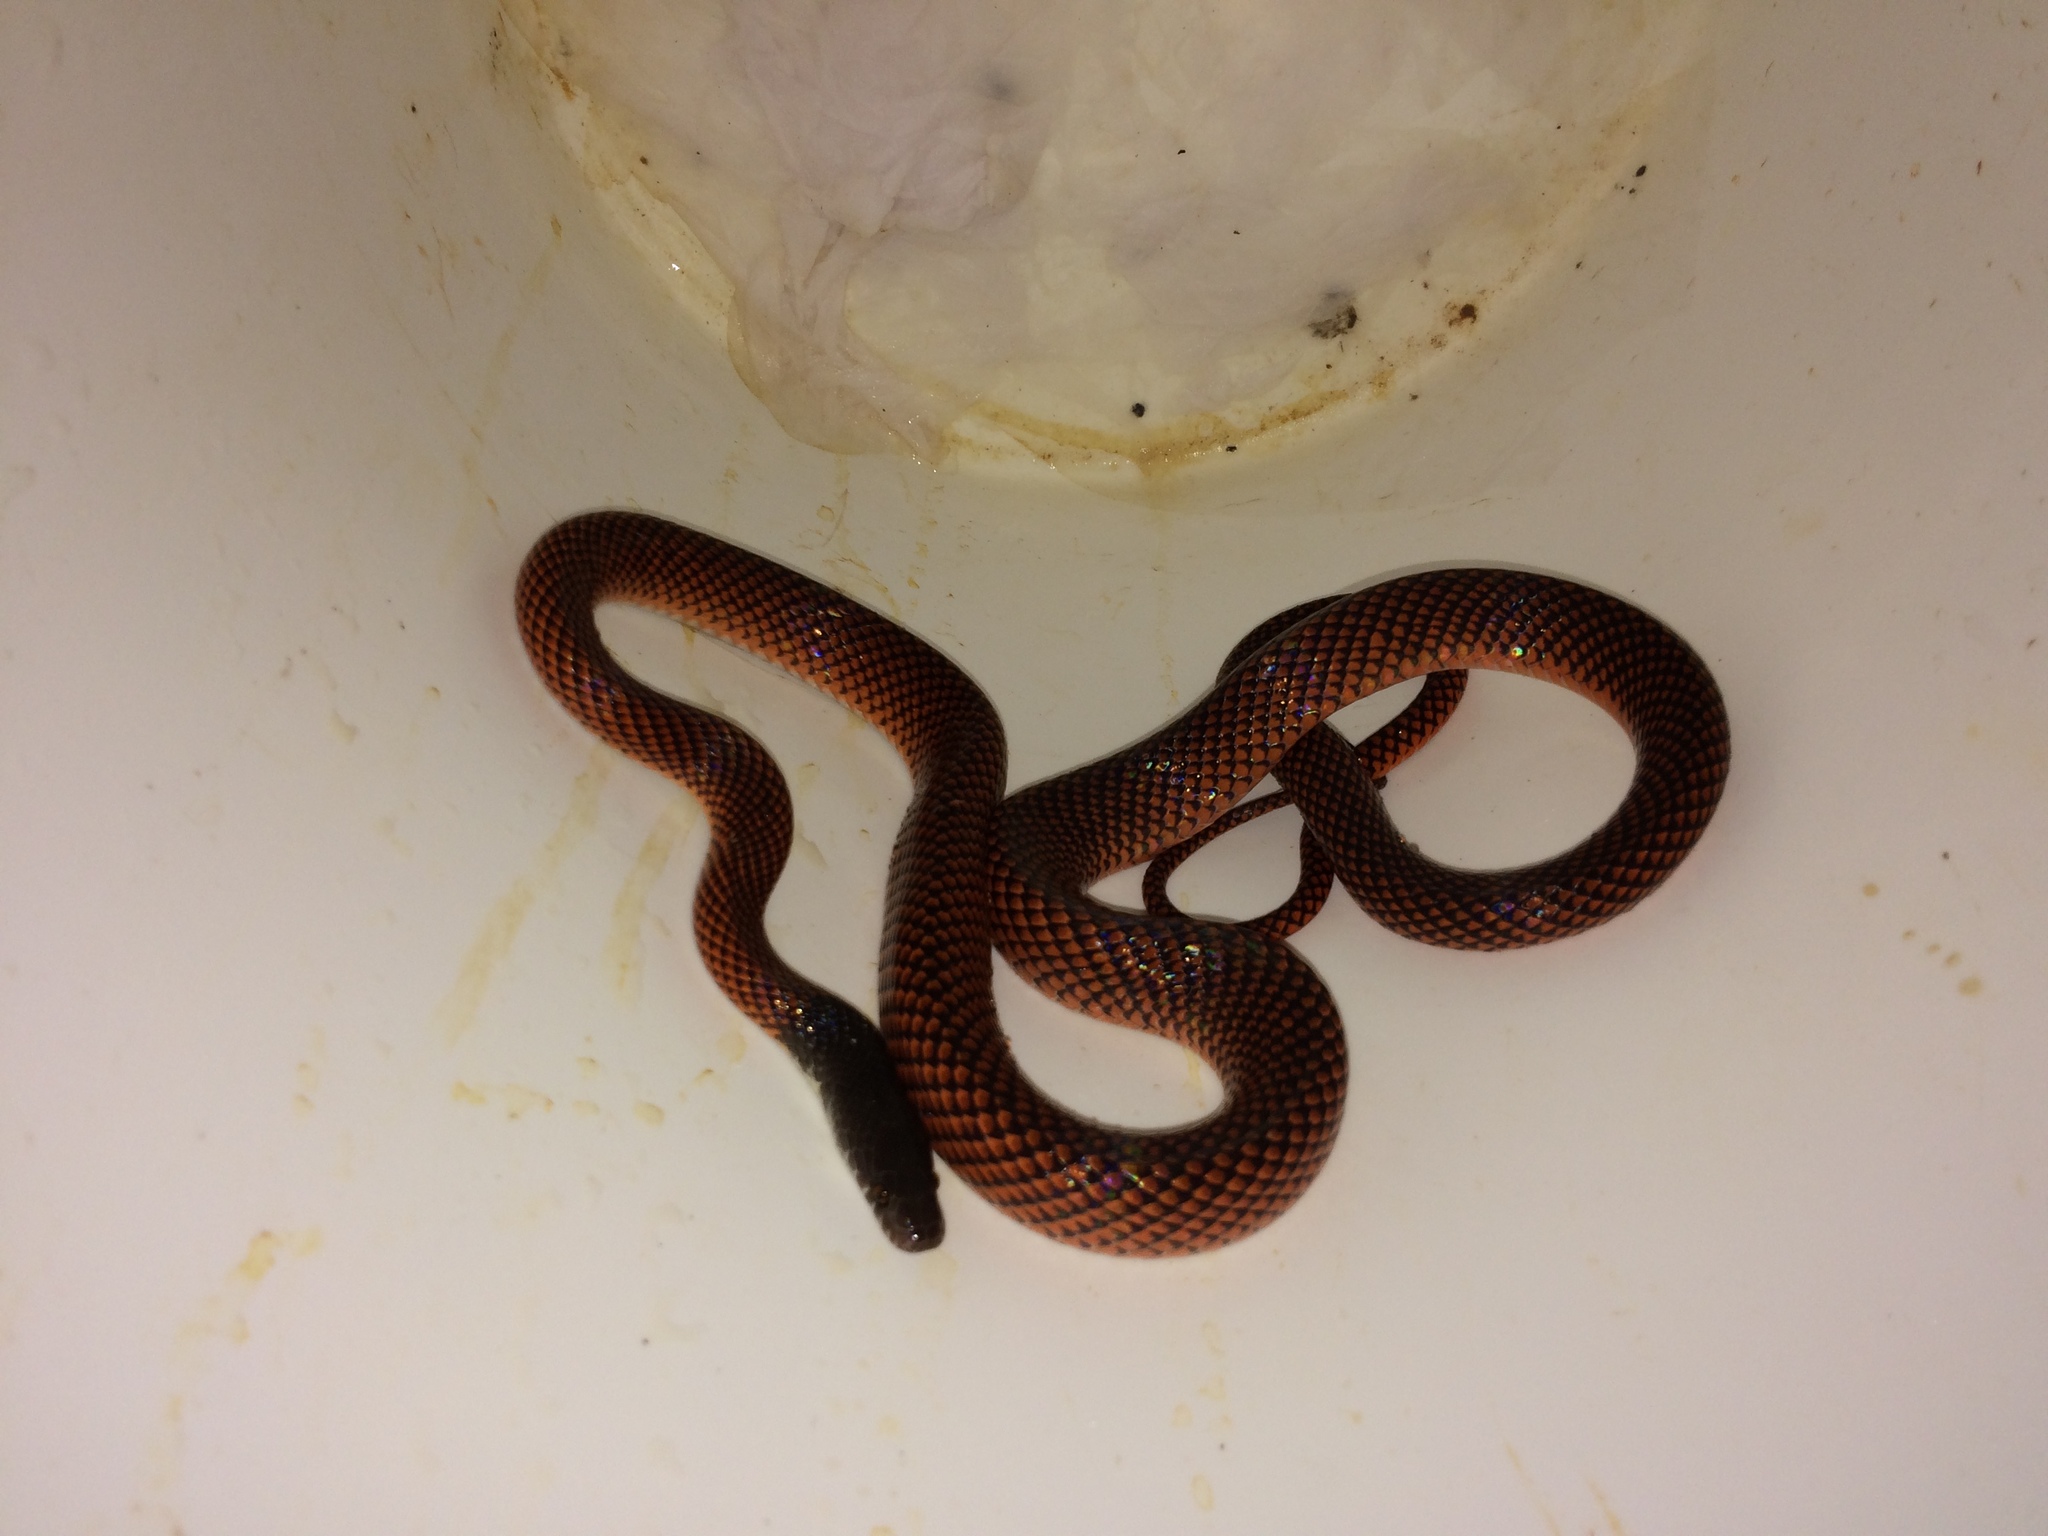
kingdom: Animalia
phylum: Chordata
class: Squamata
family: Colubridae
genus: Oxyrhopus
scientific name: Oxyrhopus melanogenys
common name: Tschudi's false coral snake
